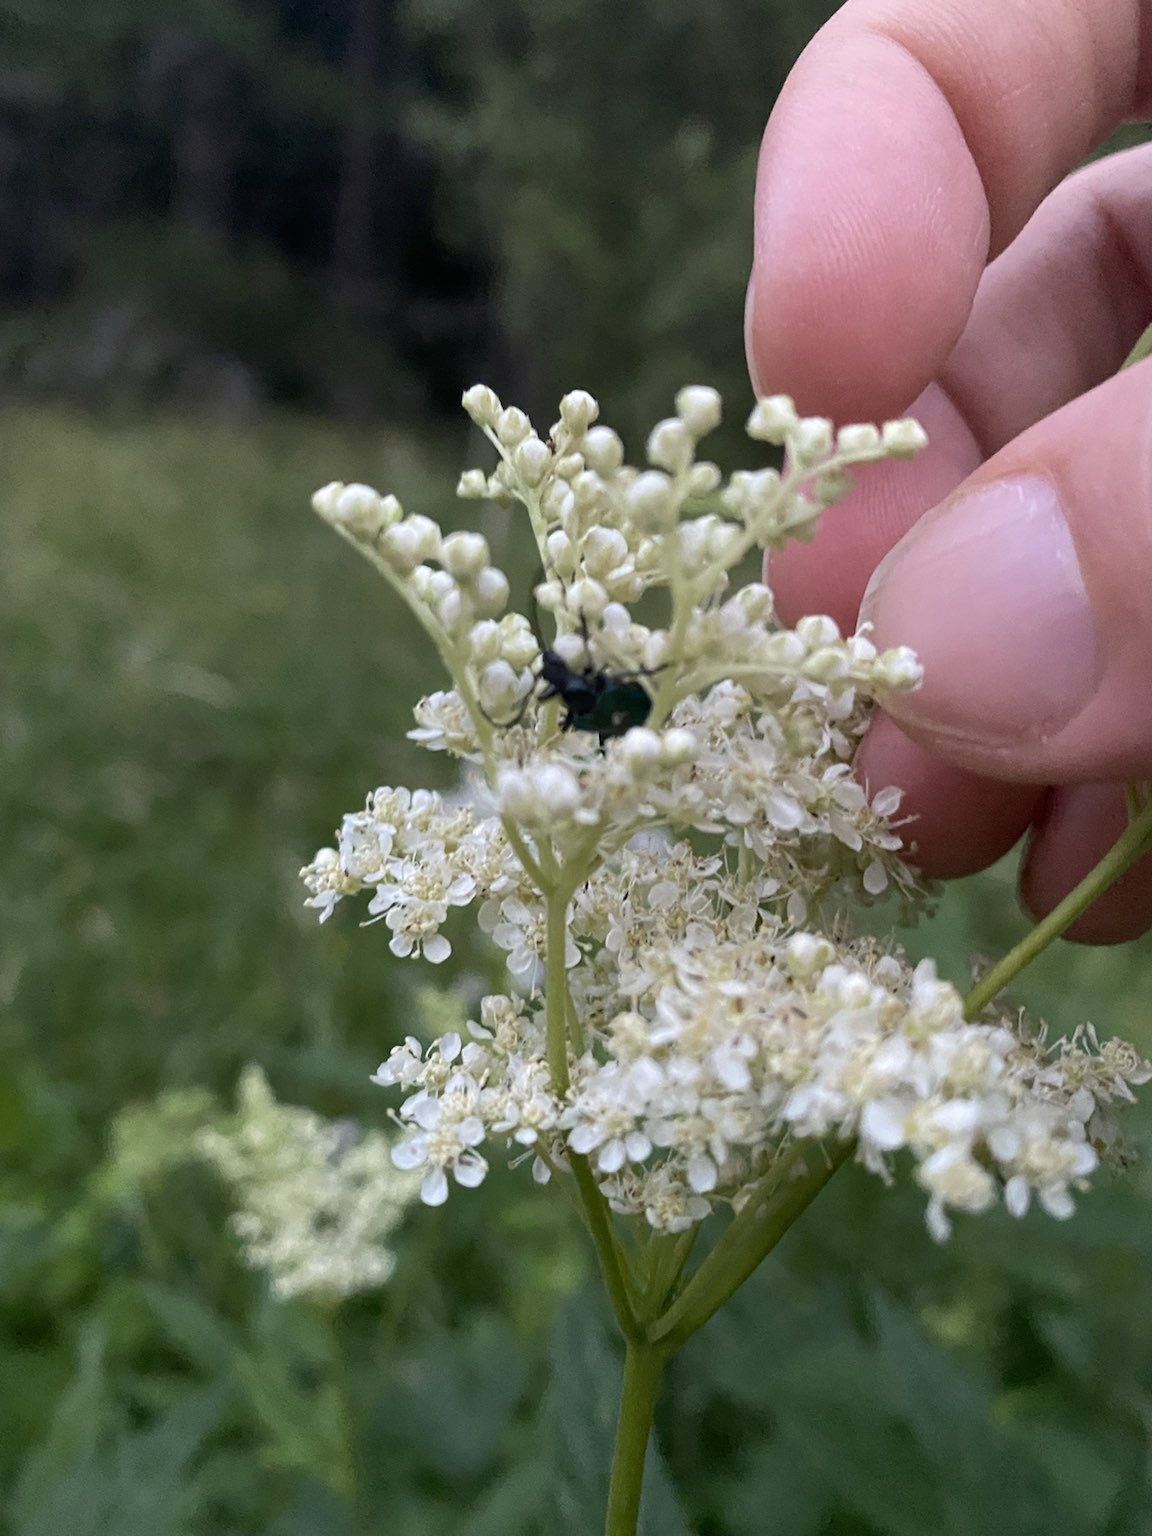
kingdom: Plantae
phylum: Tracheophyta
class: Magnoliopsida
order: Rosales
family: Rosaceae
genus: Filipendula
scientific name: Filipendula ulmaria
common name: Meadowsweet
